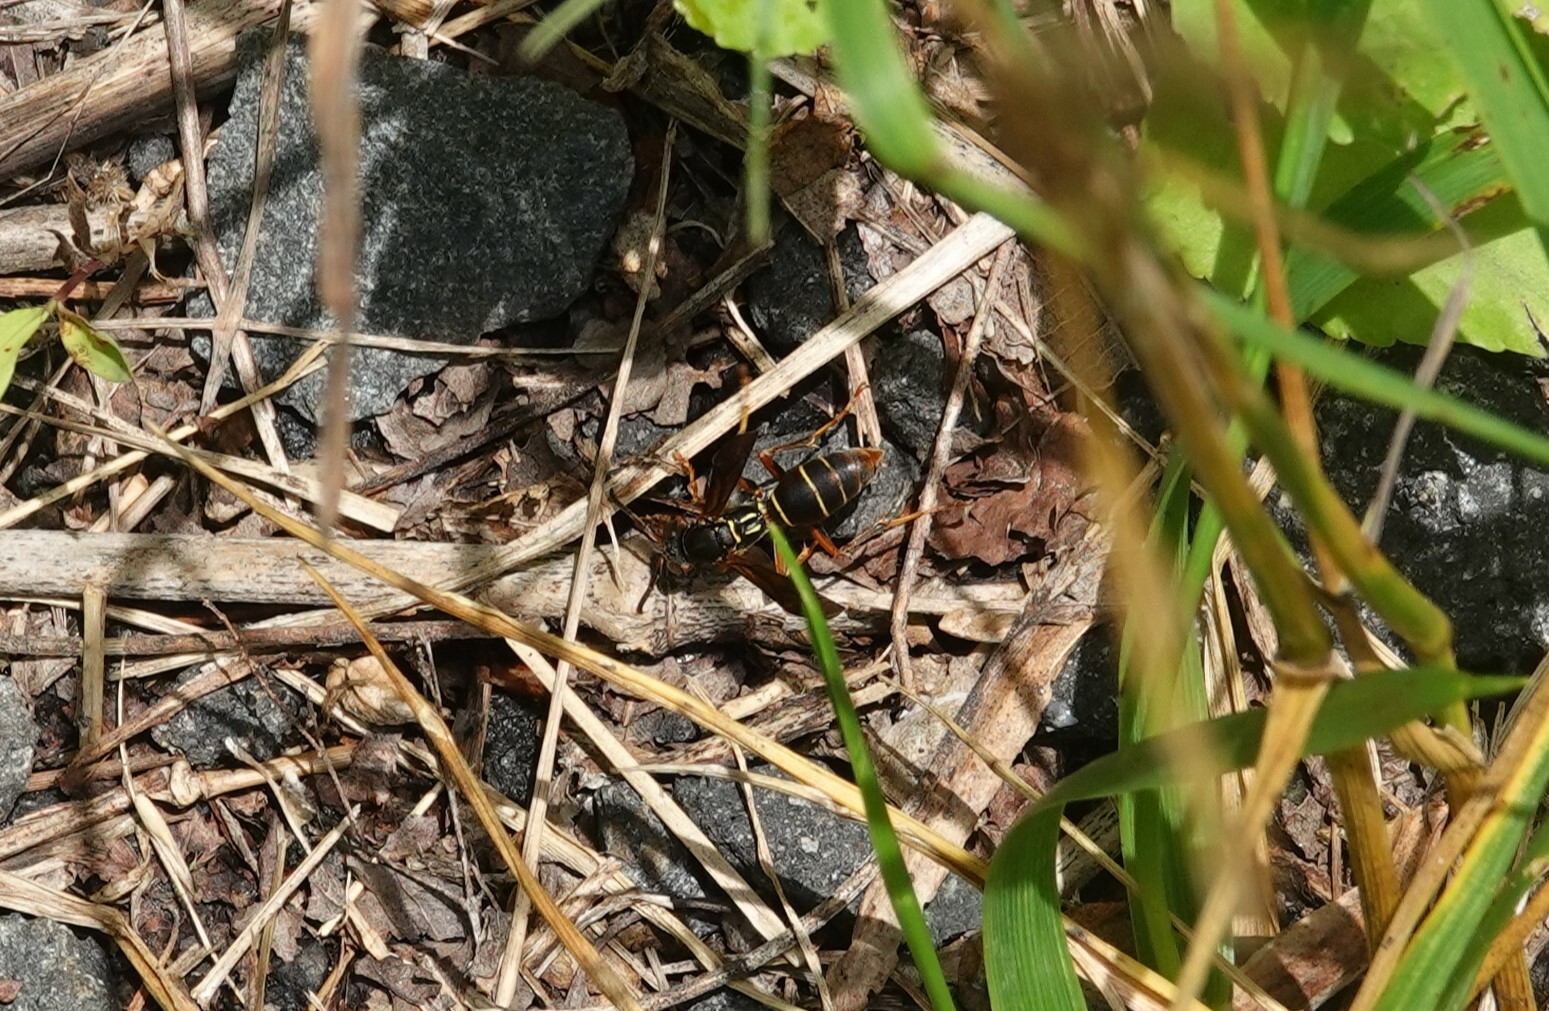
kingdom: Animalia
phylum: Arthropoda
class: Insecta
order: Hymenoptera
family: Eumenidae
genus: Polistes
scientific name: Polistes fuscatus
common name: Dark paper wasp
